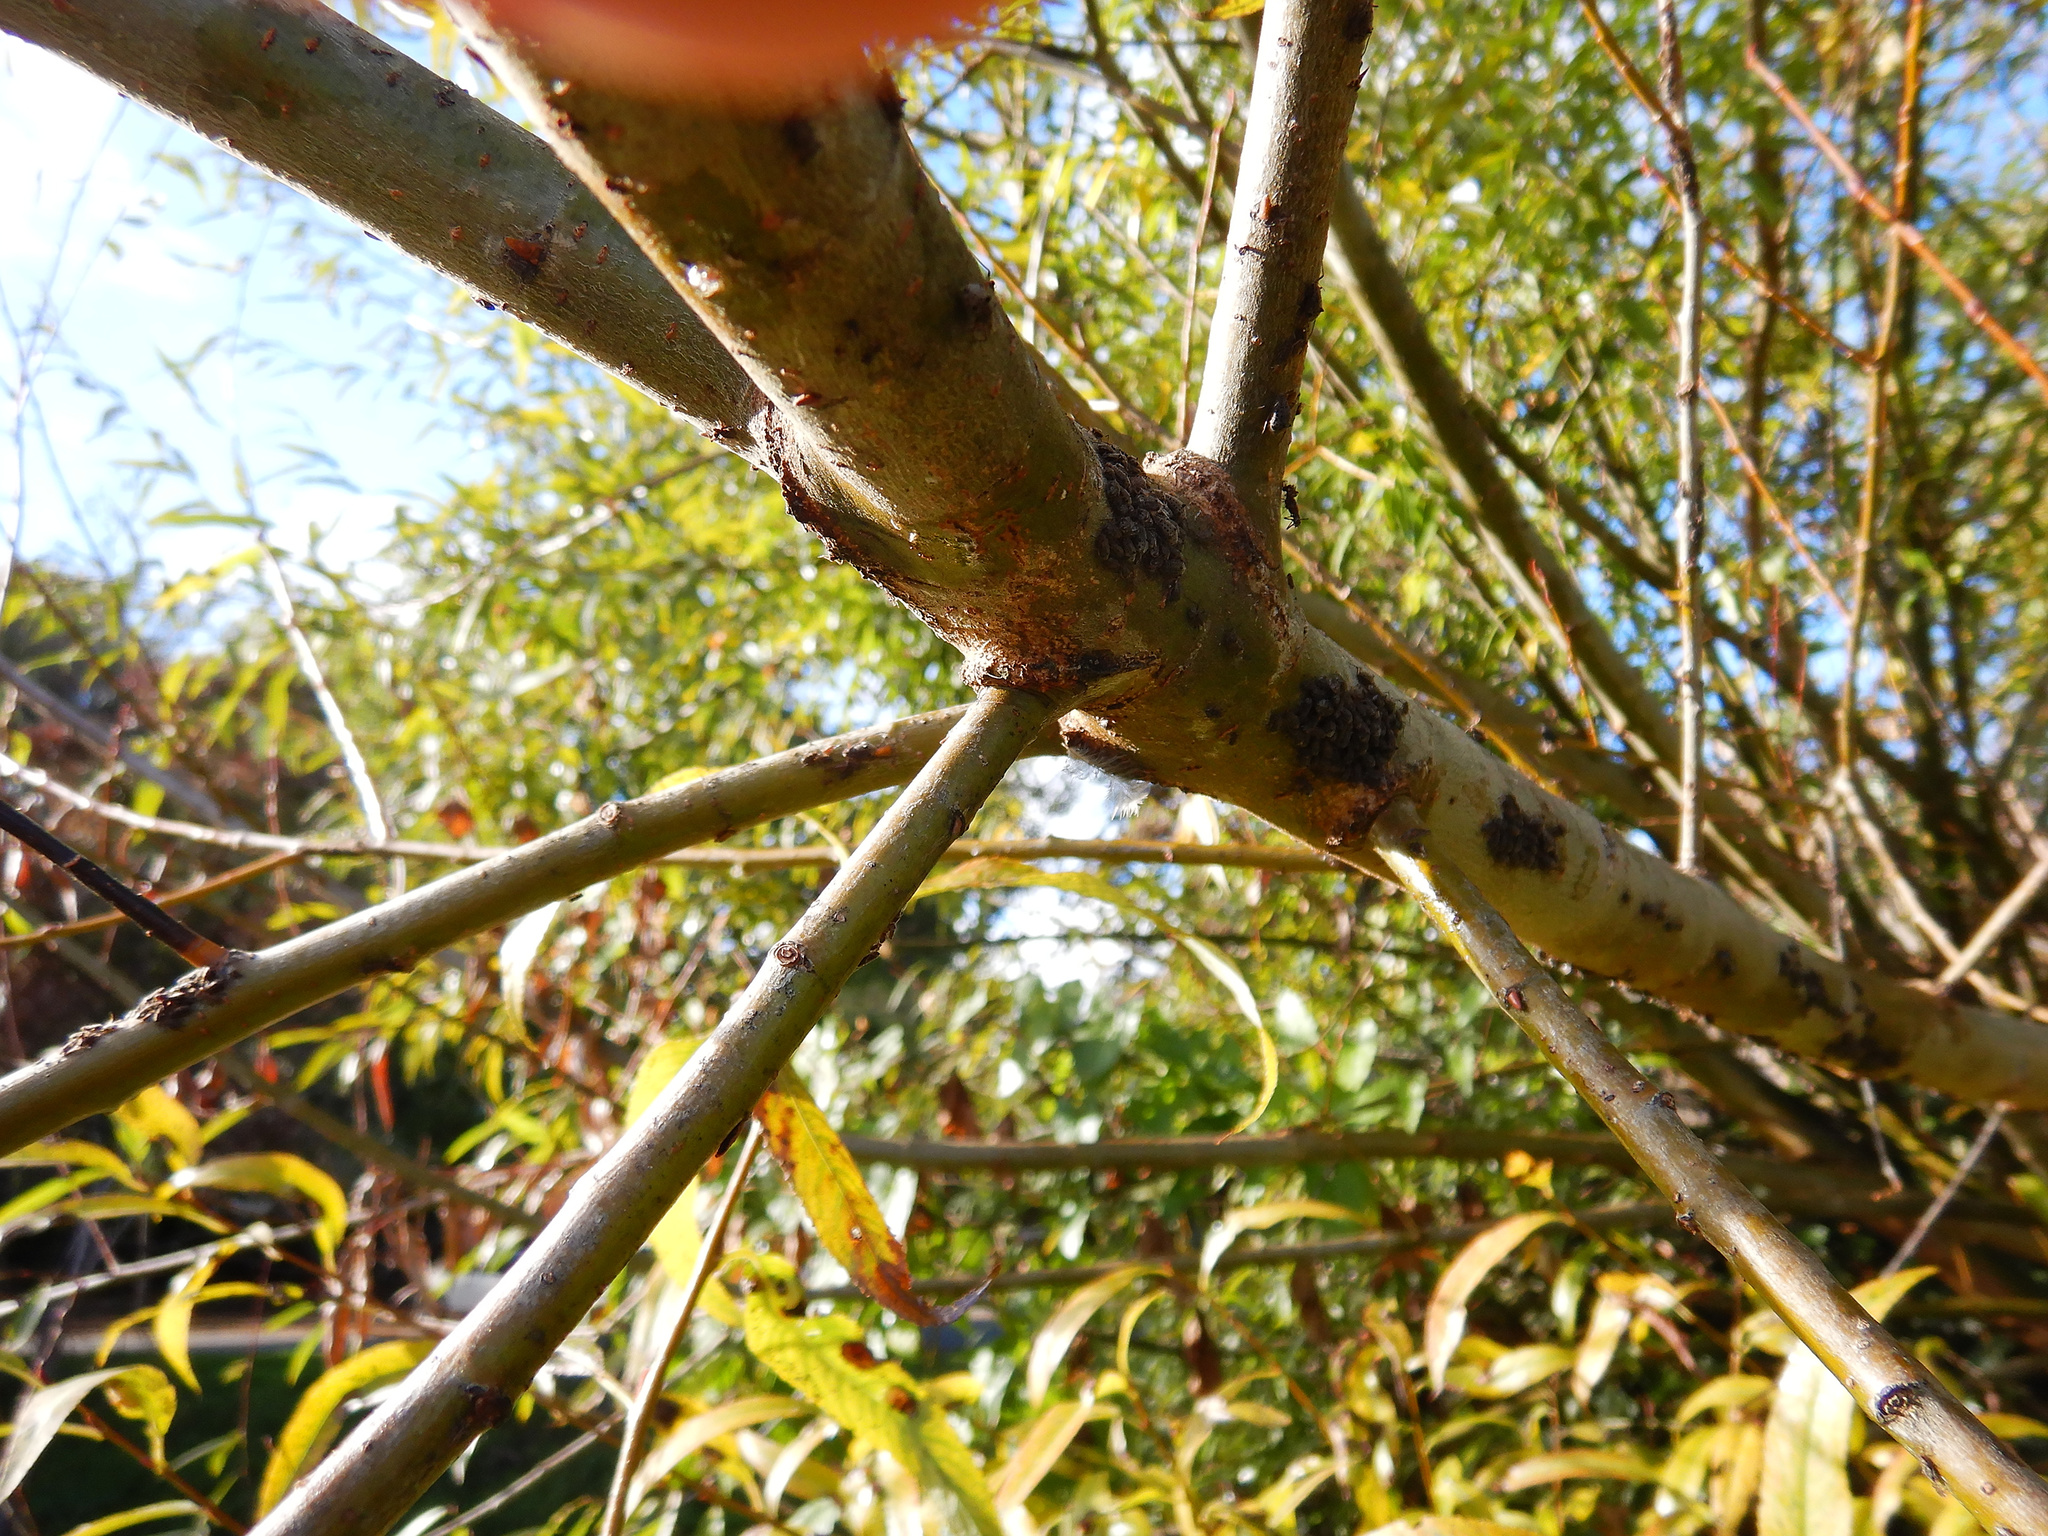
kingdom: Animalia
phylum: Arthropoda
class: Insecta
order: Hemiptera
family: Aphididae
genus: Tuberolachnus
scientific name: Tuberolachnus salignus
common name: Giant willow aphid
